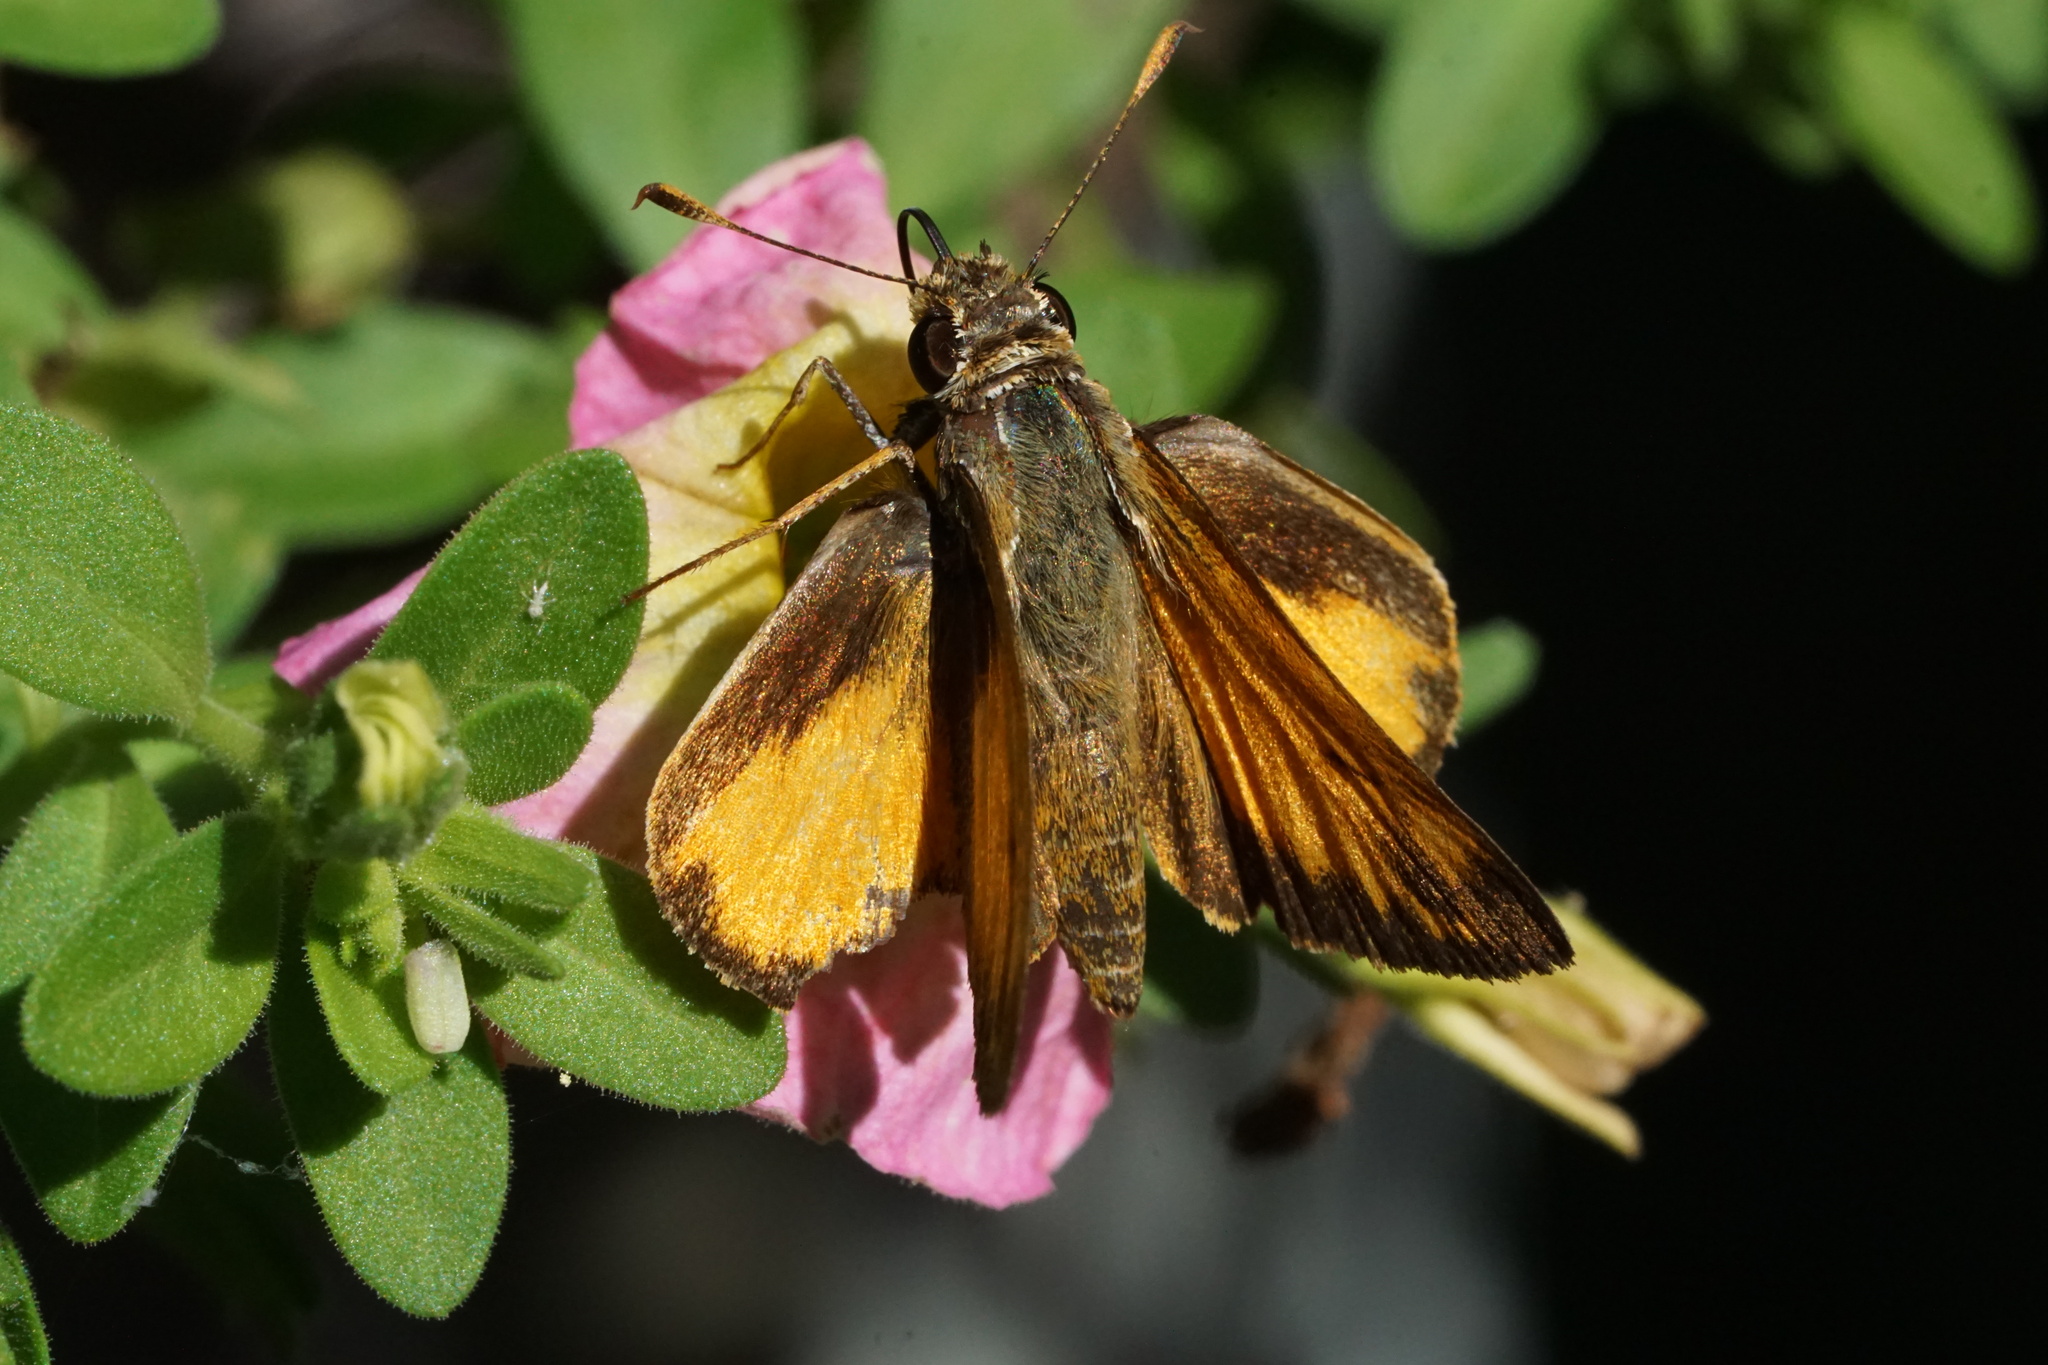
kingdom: Animalia
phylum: Arthropoda
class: Insecta
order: Lepidoptera
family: Hesperiidae
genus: Lon
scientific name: Lon zabulon
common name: Zabulon skipper
